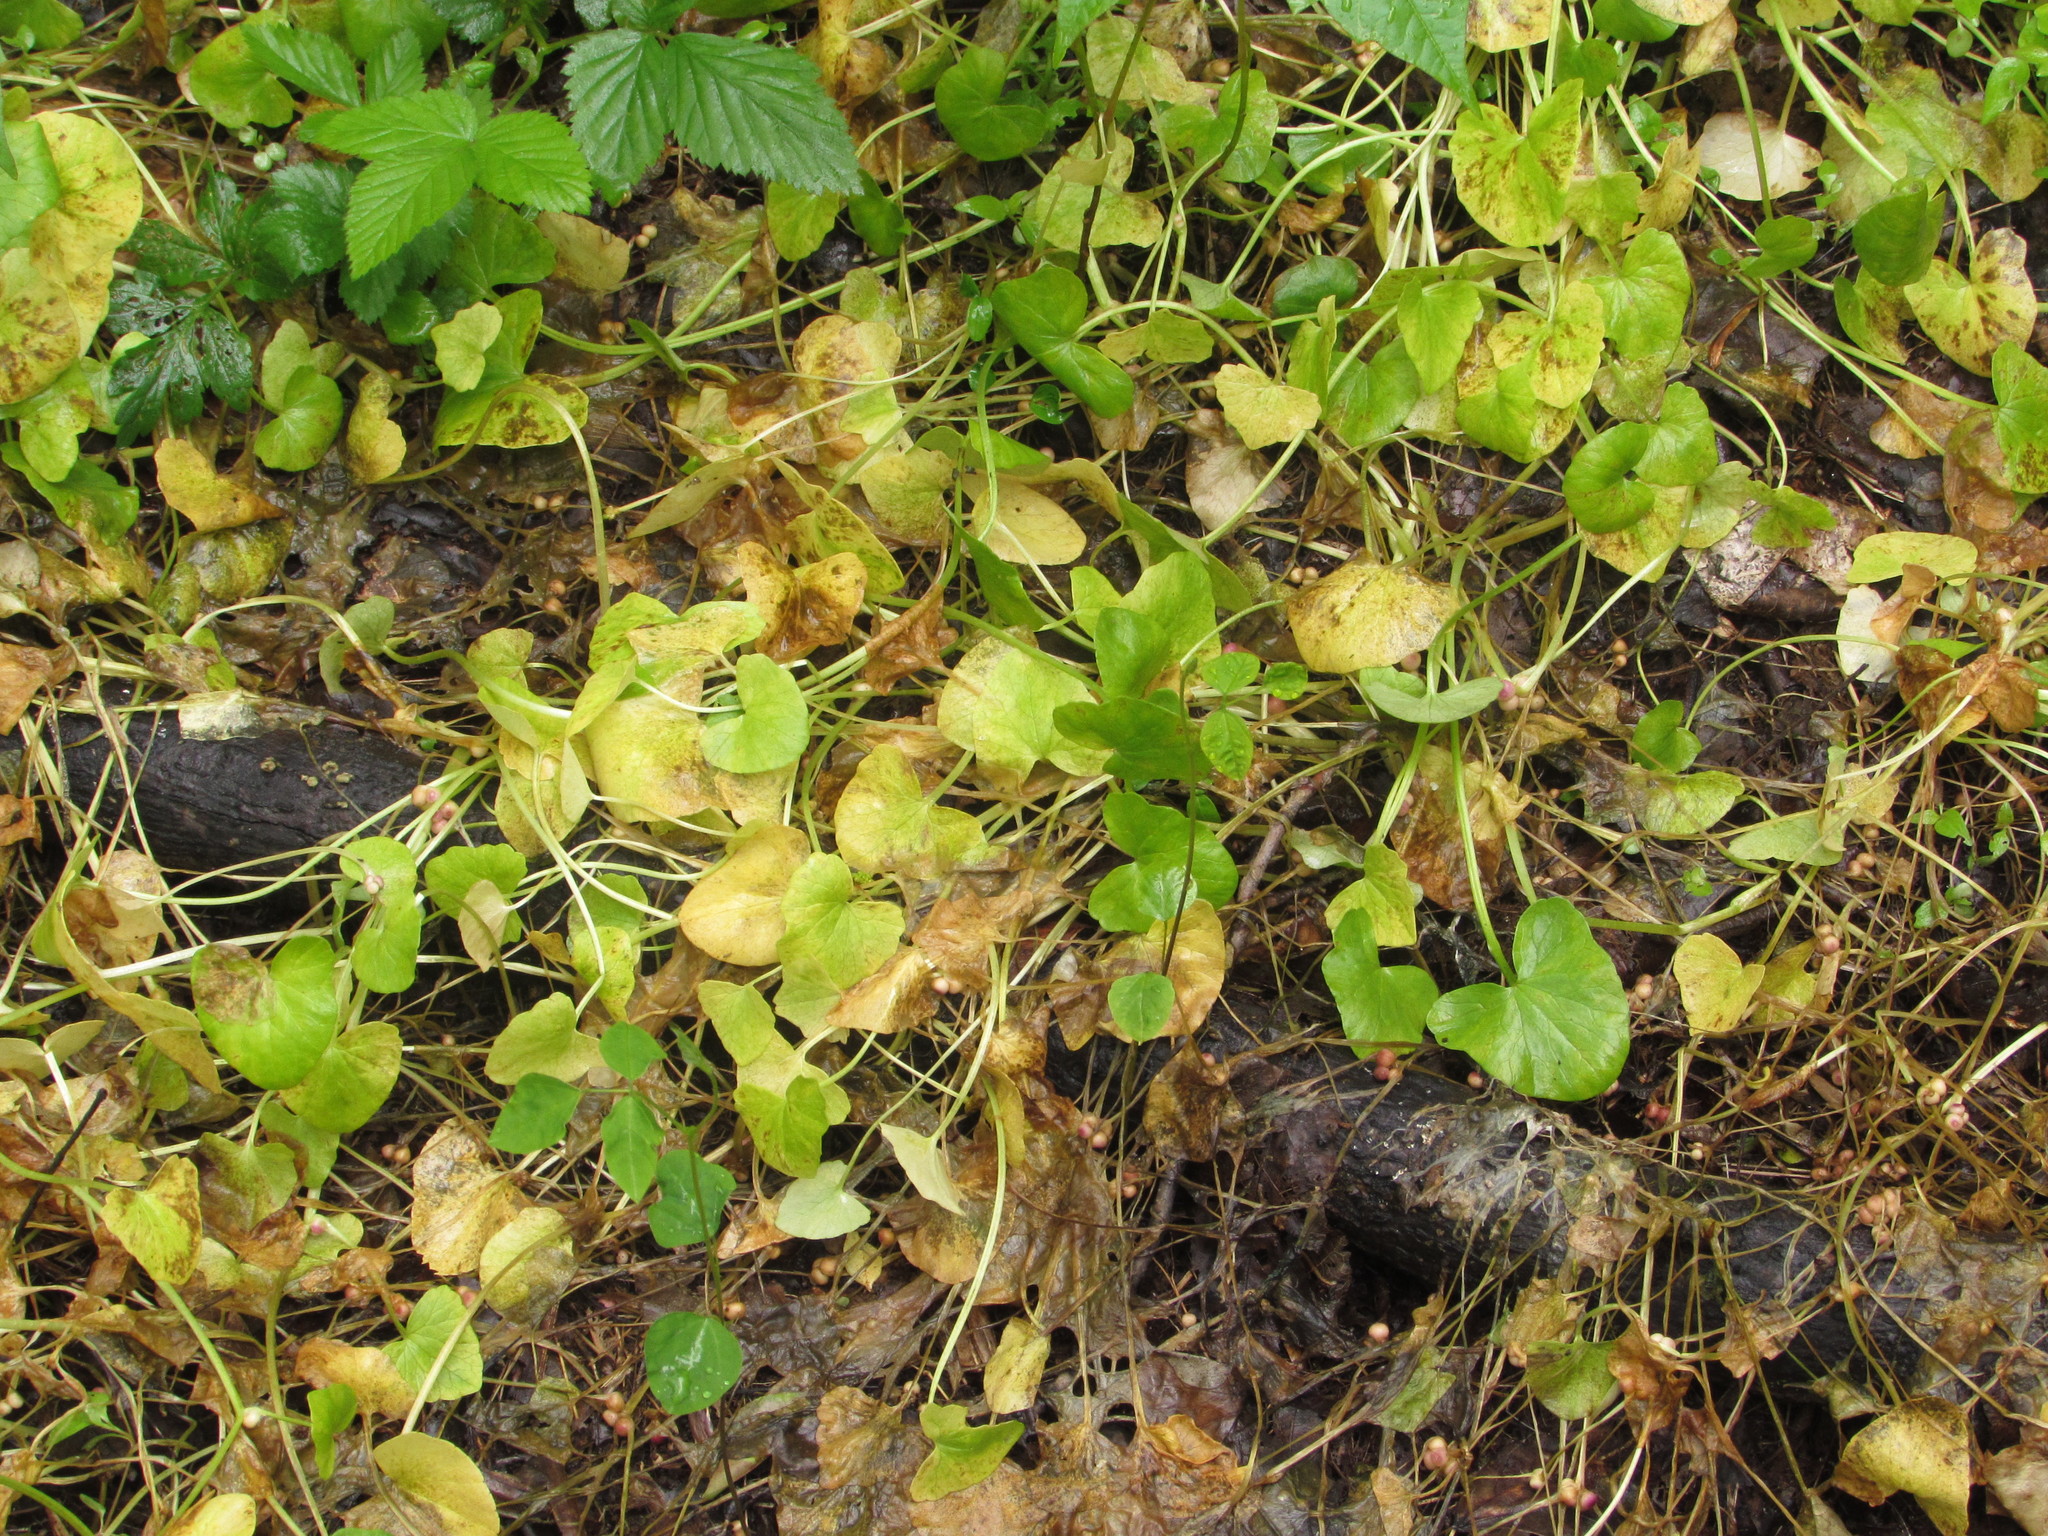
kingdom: Plantae
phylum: Tracheophyta
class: Magnoliopsida
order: Ranunculales
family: Ranunculaceae
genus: Ficaria
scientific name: Ficaria verna
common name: Lesser celandine
